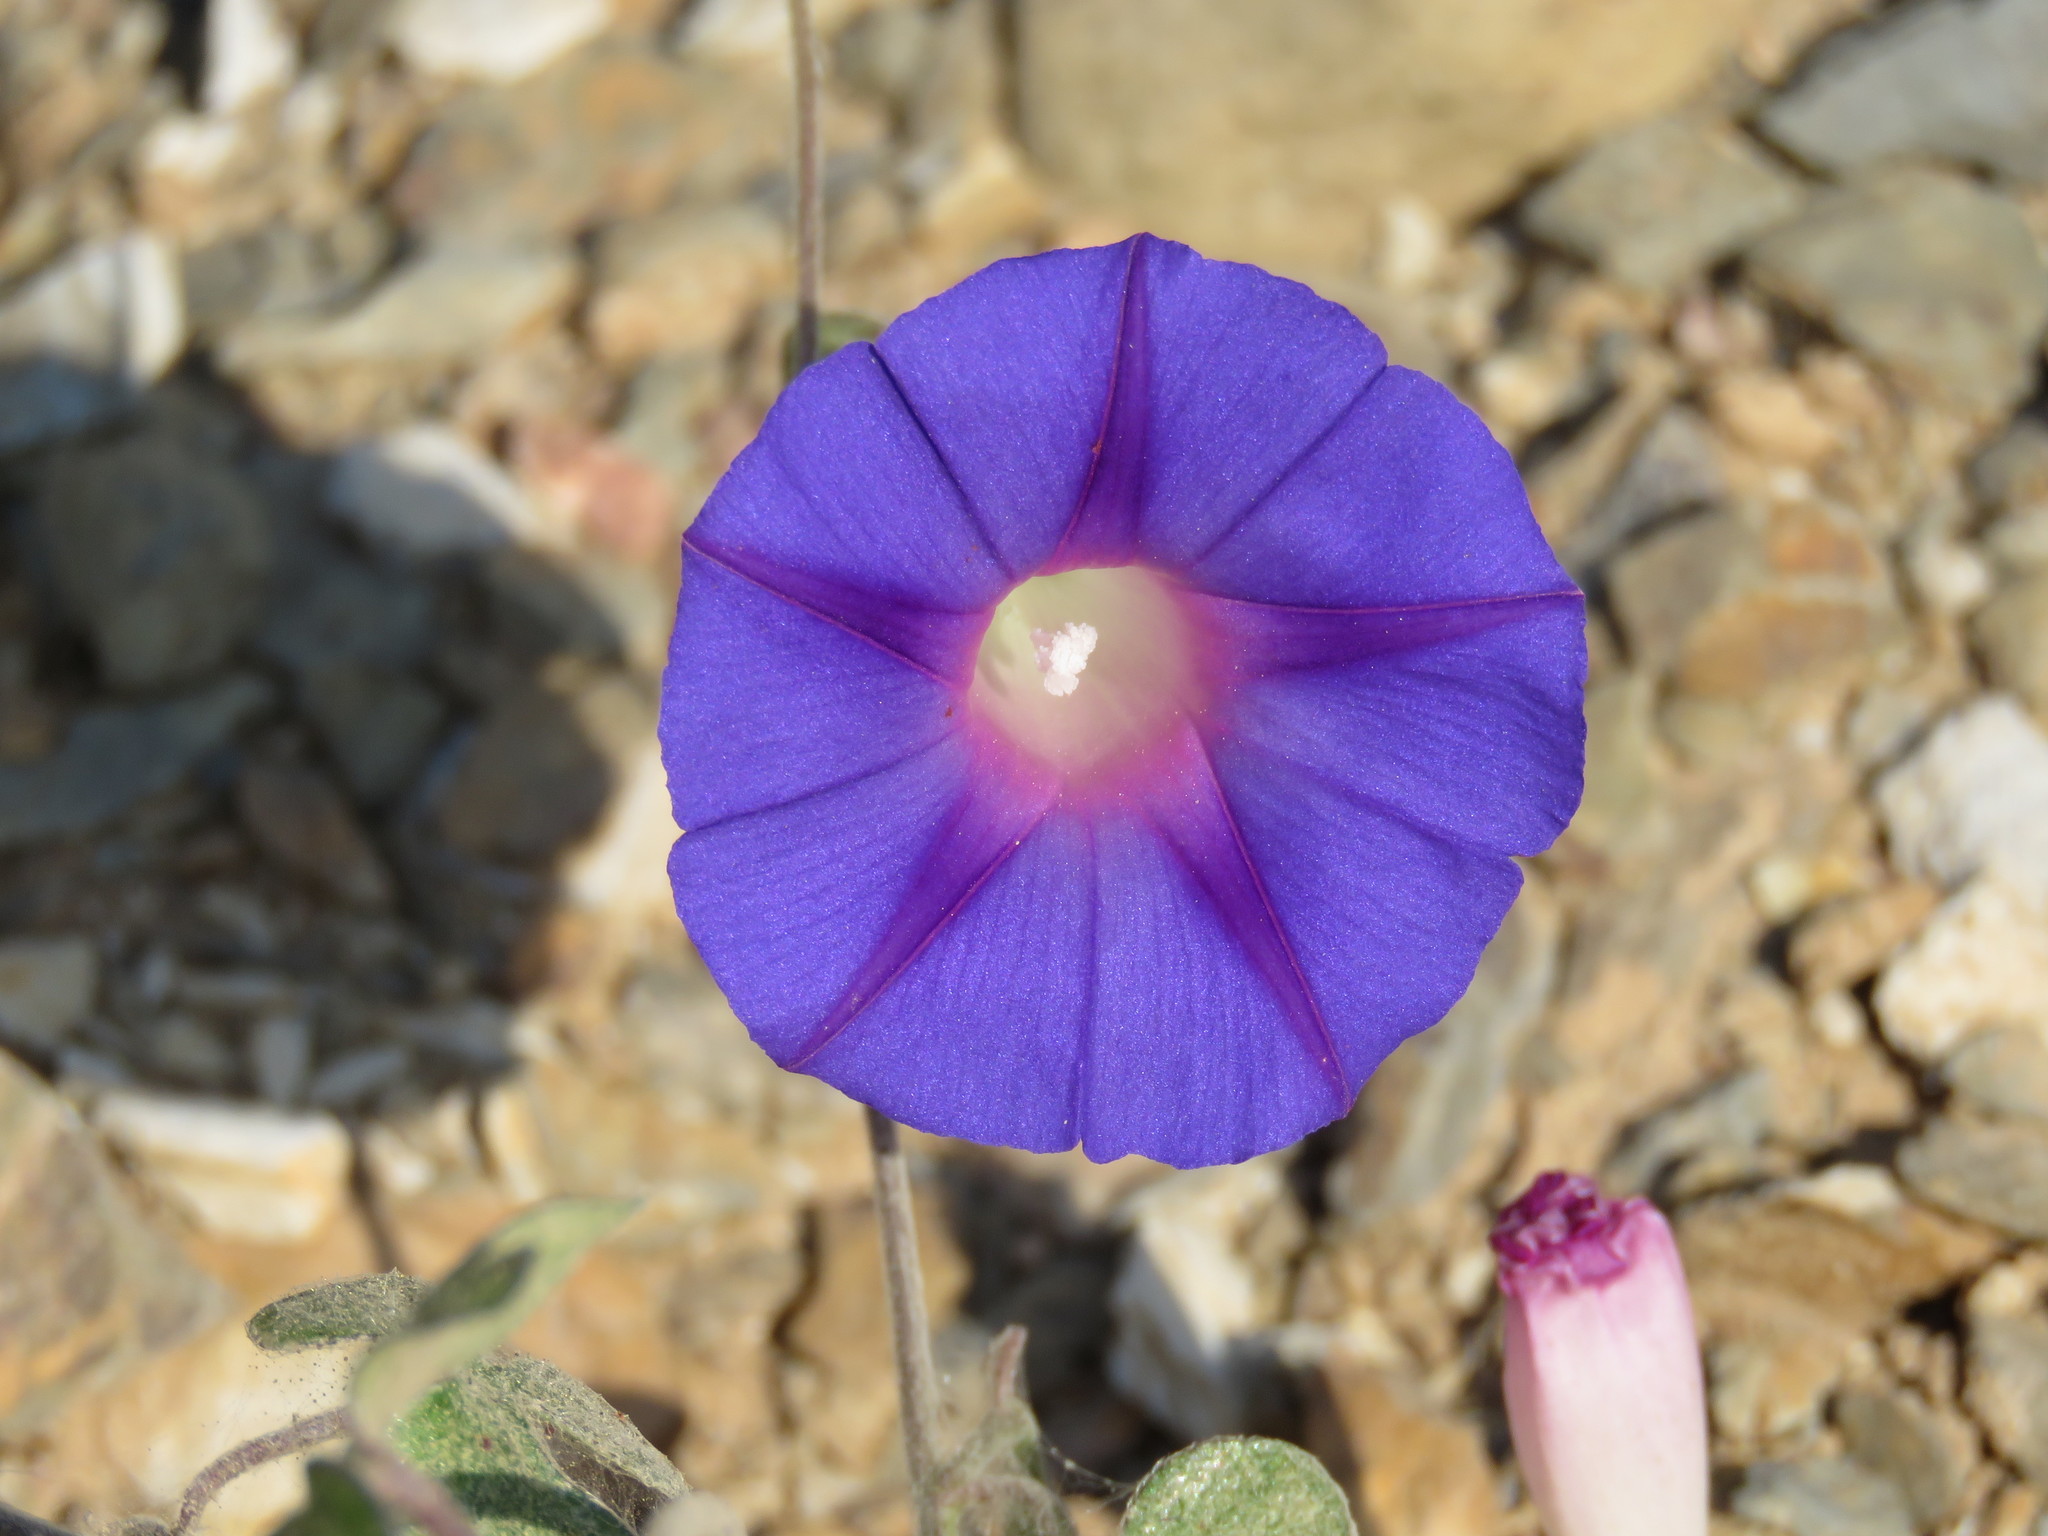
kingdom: Plantae
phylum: Tracheophyta
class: Magnoliopsida
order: Solanales
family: Convolvulaceae
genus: Ipomoea
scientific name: Ipomoea purpurea
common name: Common morning-glory
